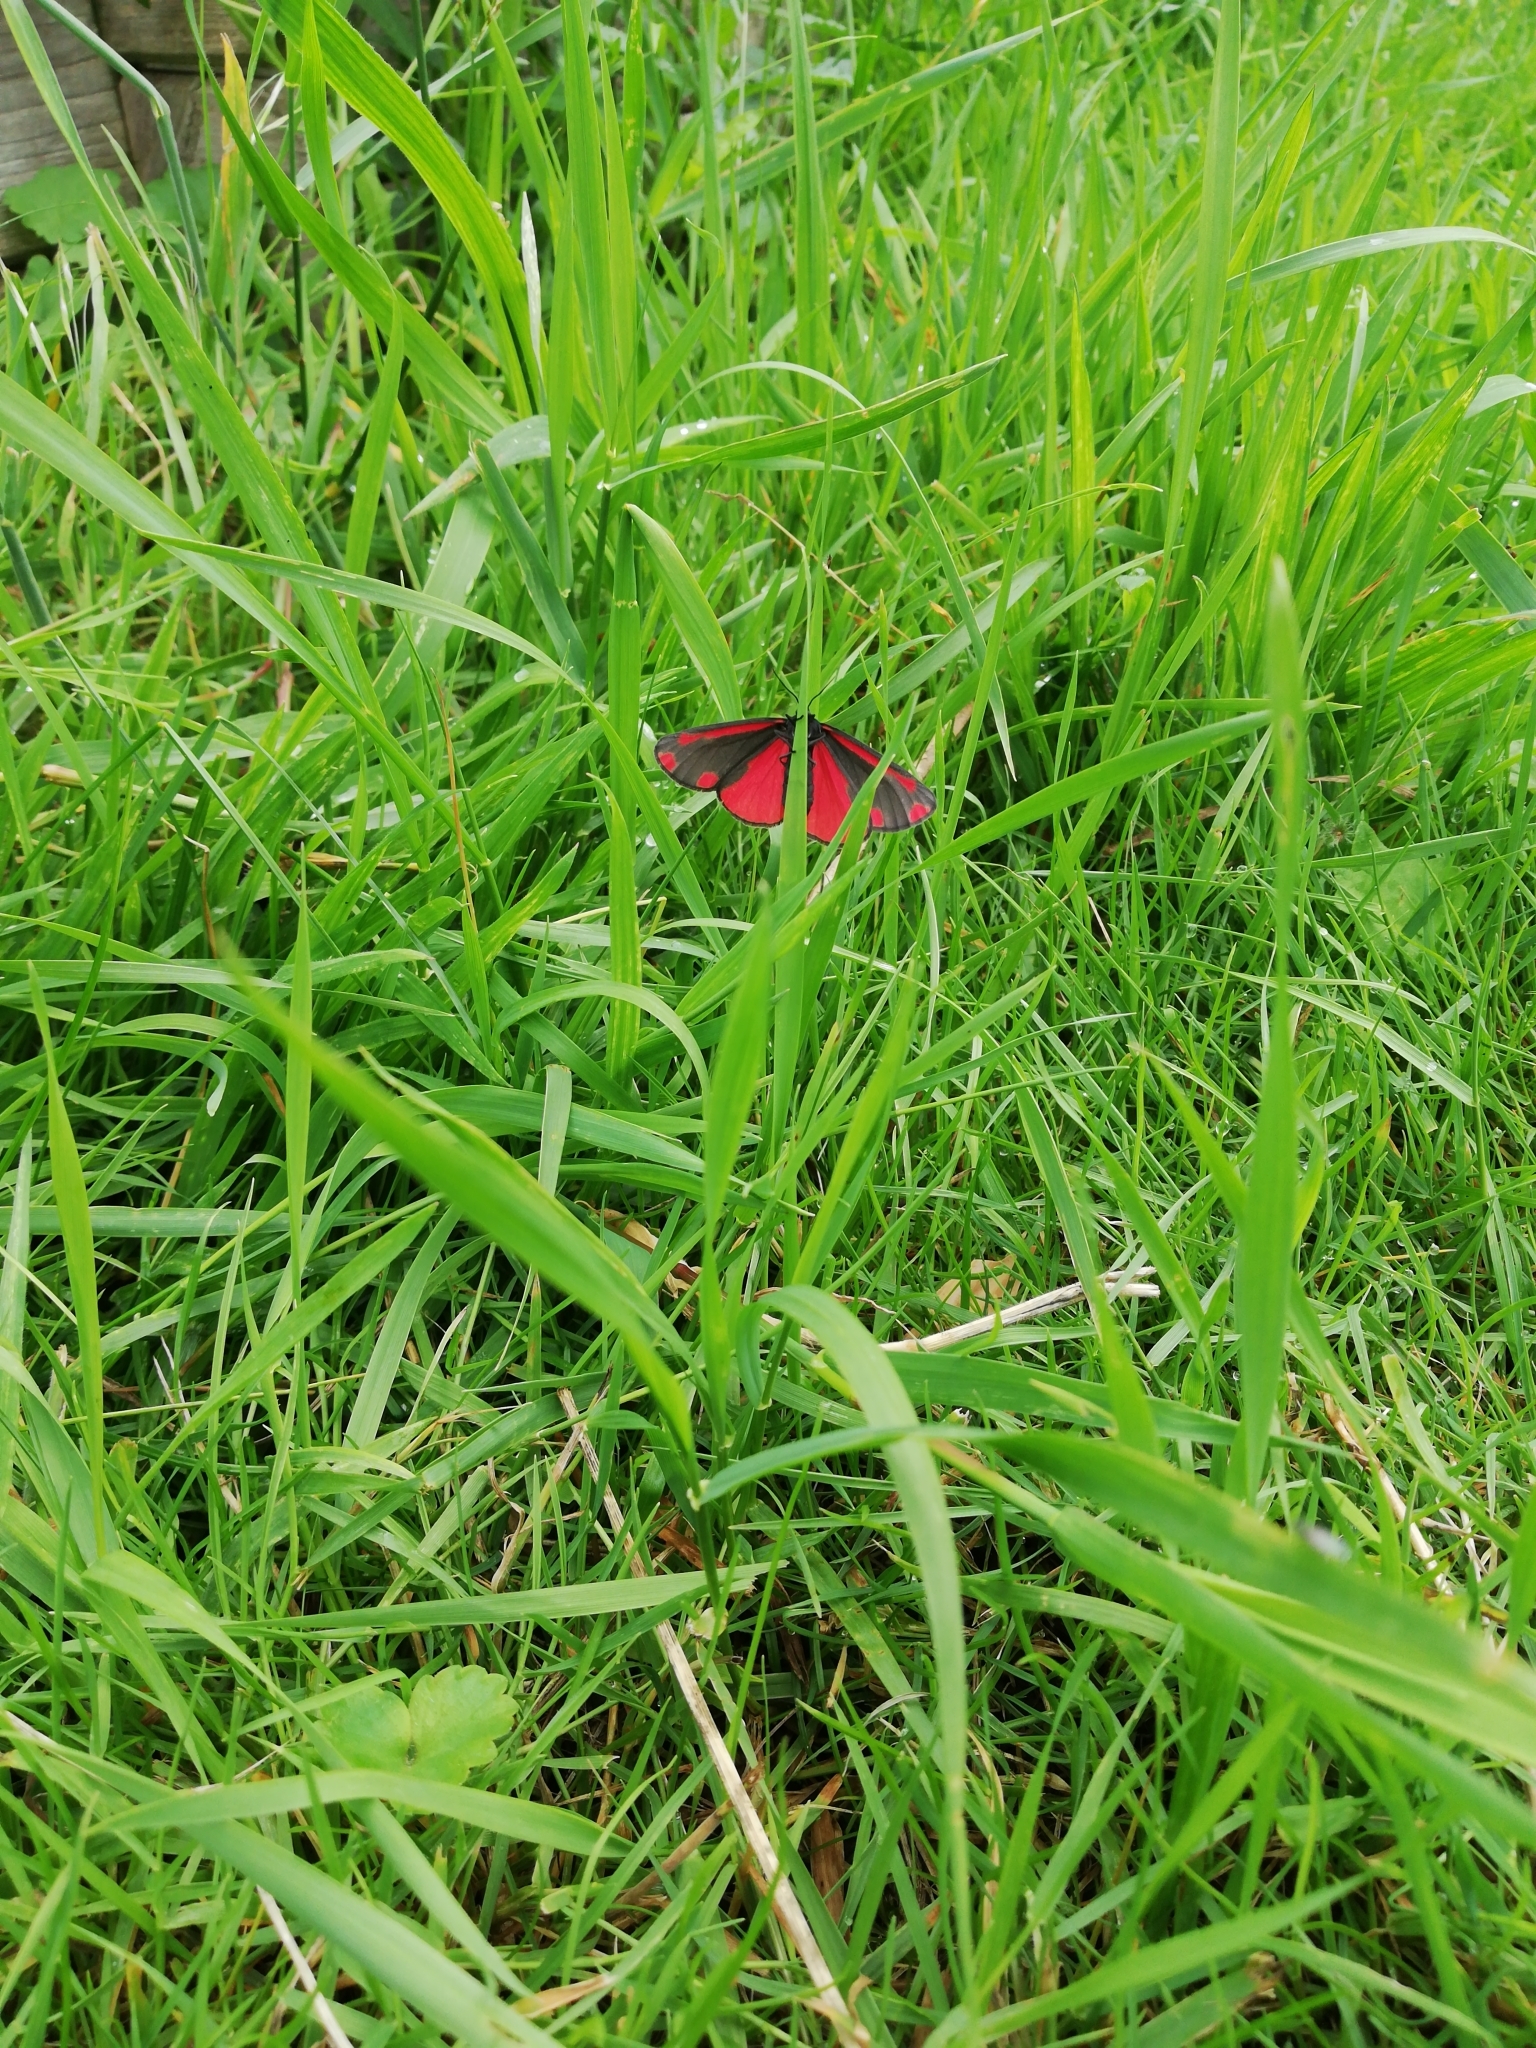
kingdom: Animalia
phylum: Arthropoda
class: Insecta
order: Lepidoptera
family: Erebidae
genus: Tyria
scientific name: Tyria jacobaeae
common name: Cinnabar
